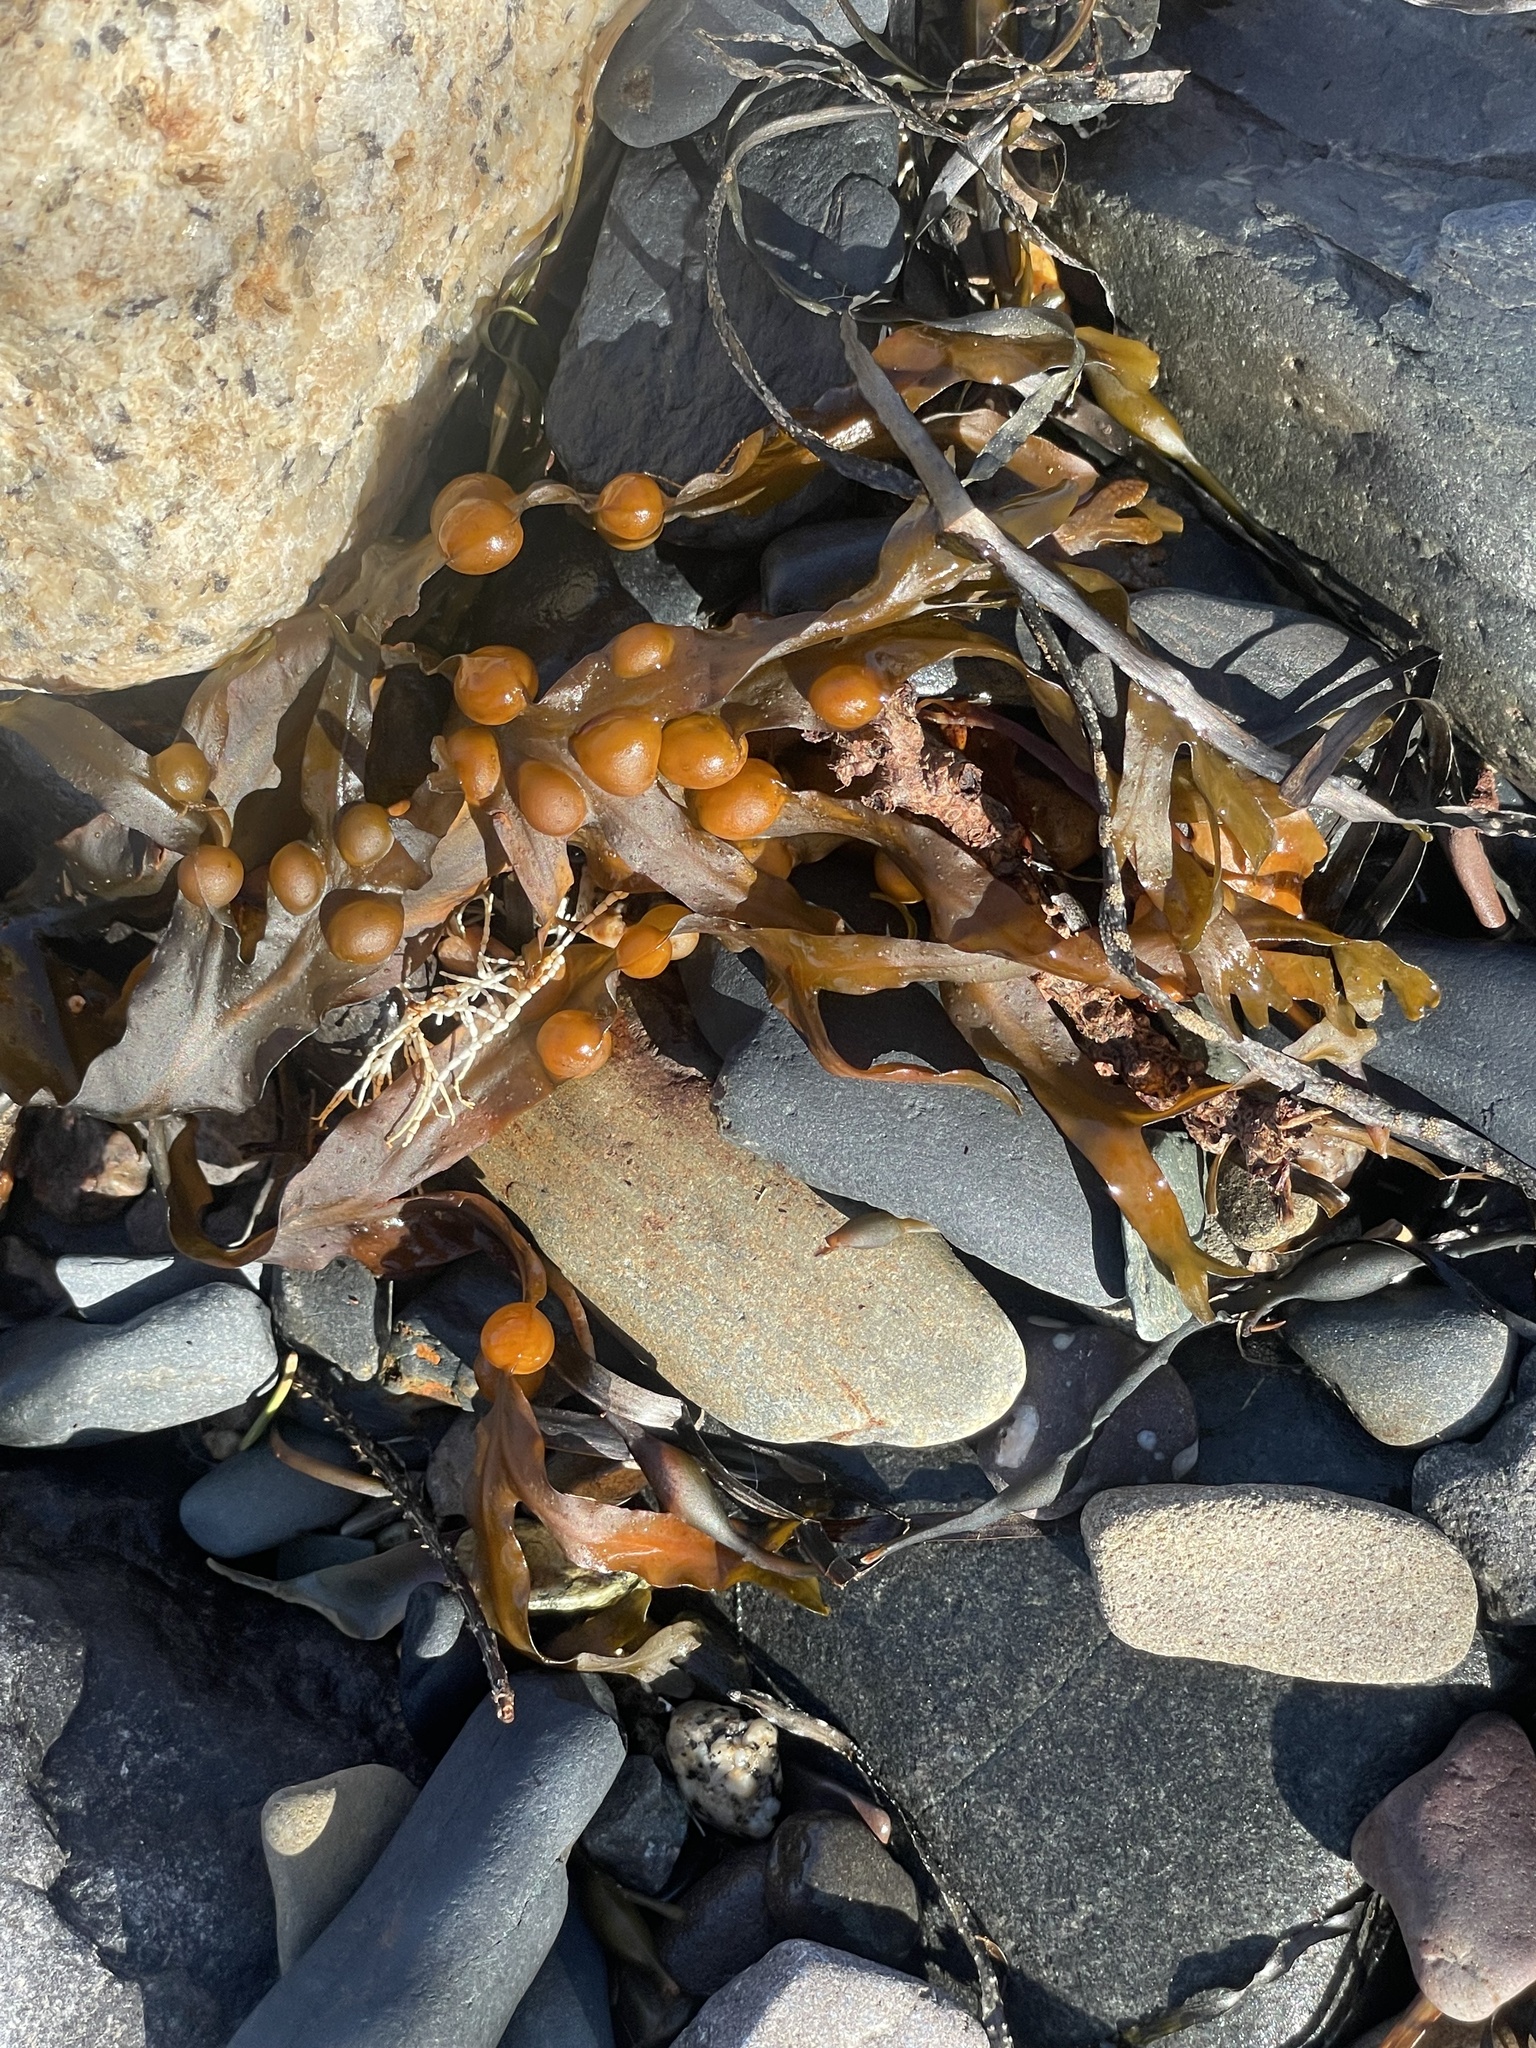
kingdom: Chromista
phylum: Ochrophyta
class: Phaeophyceae
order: Fucales
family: Fucaceae
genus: Fucus
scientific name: Fucus vesiculosus
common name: Bladder wrack
